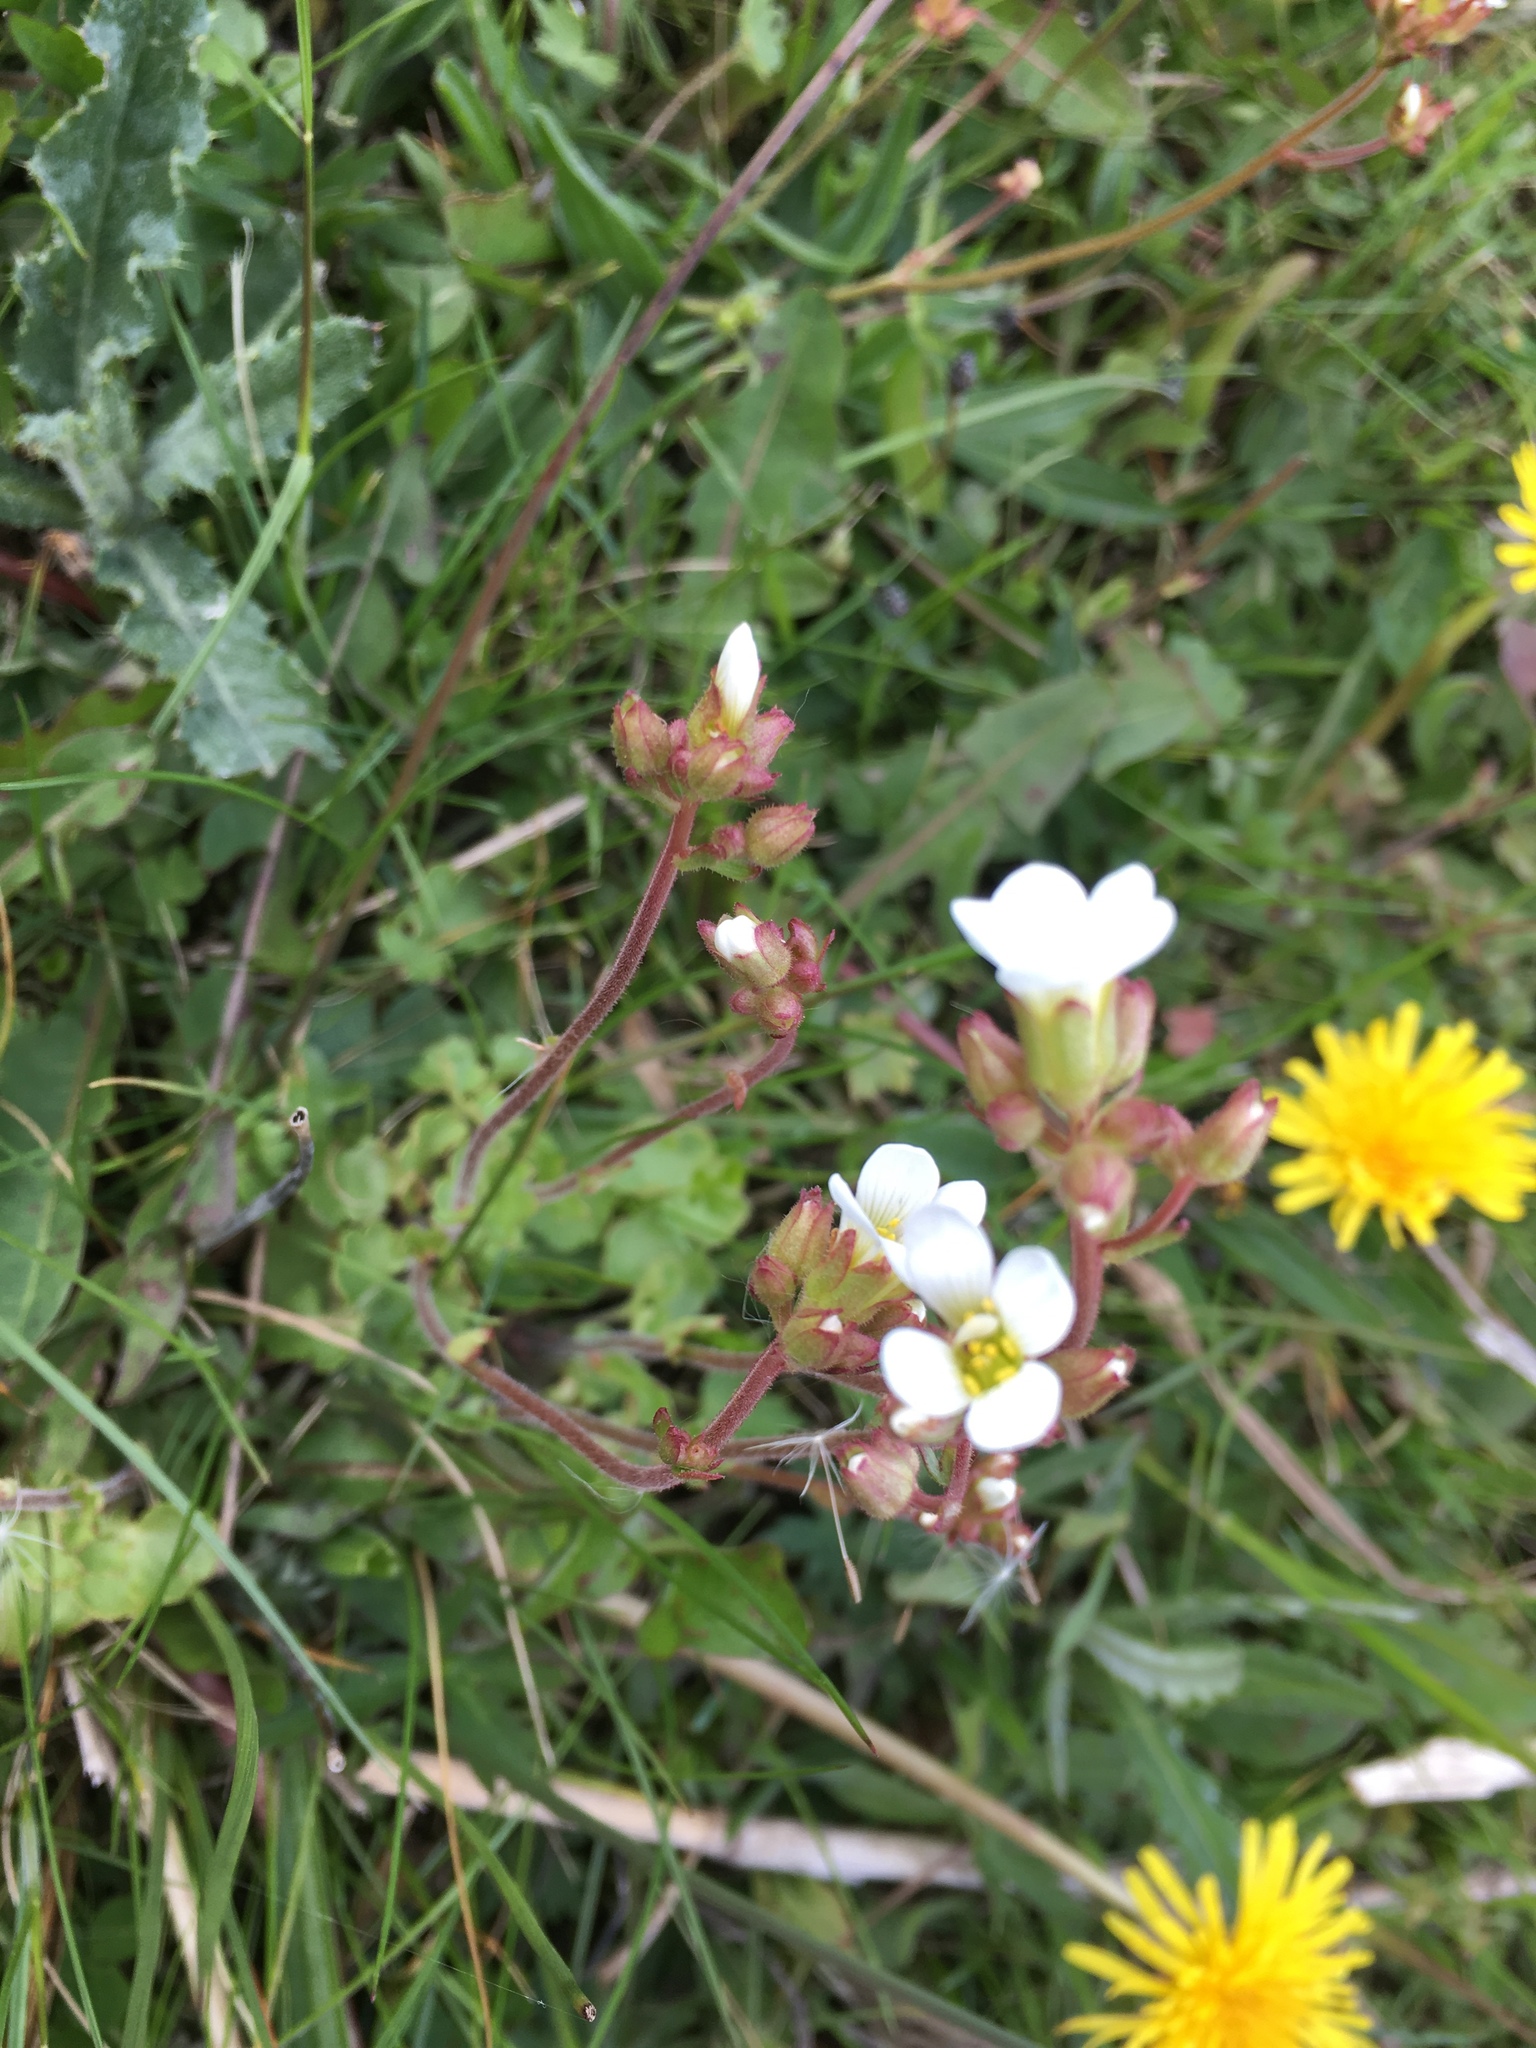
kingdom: Plantae
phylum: Tracheophyta
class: Magnoliopsida
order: Saxifragales
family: Saxifragaceae
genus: Saxifraga
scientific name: Saxifraga granulata
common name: Meadow saxifrage
